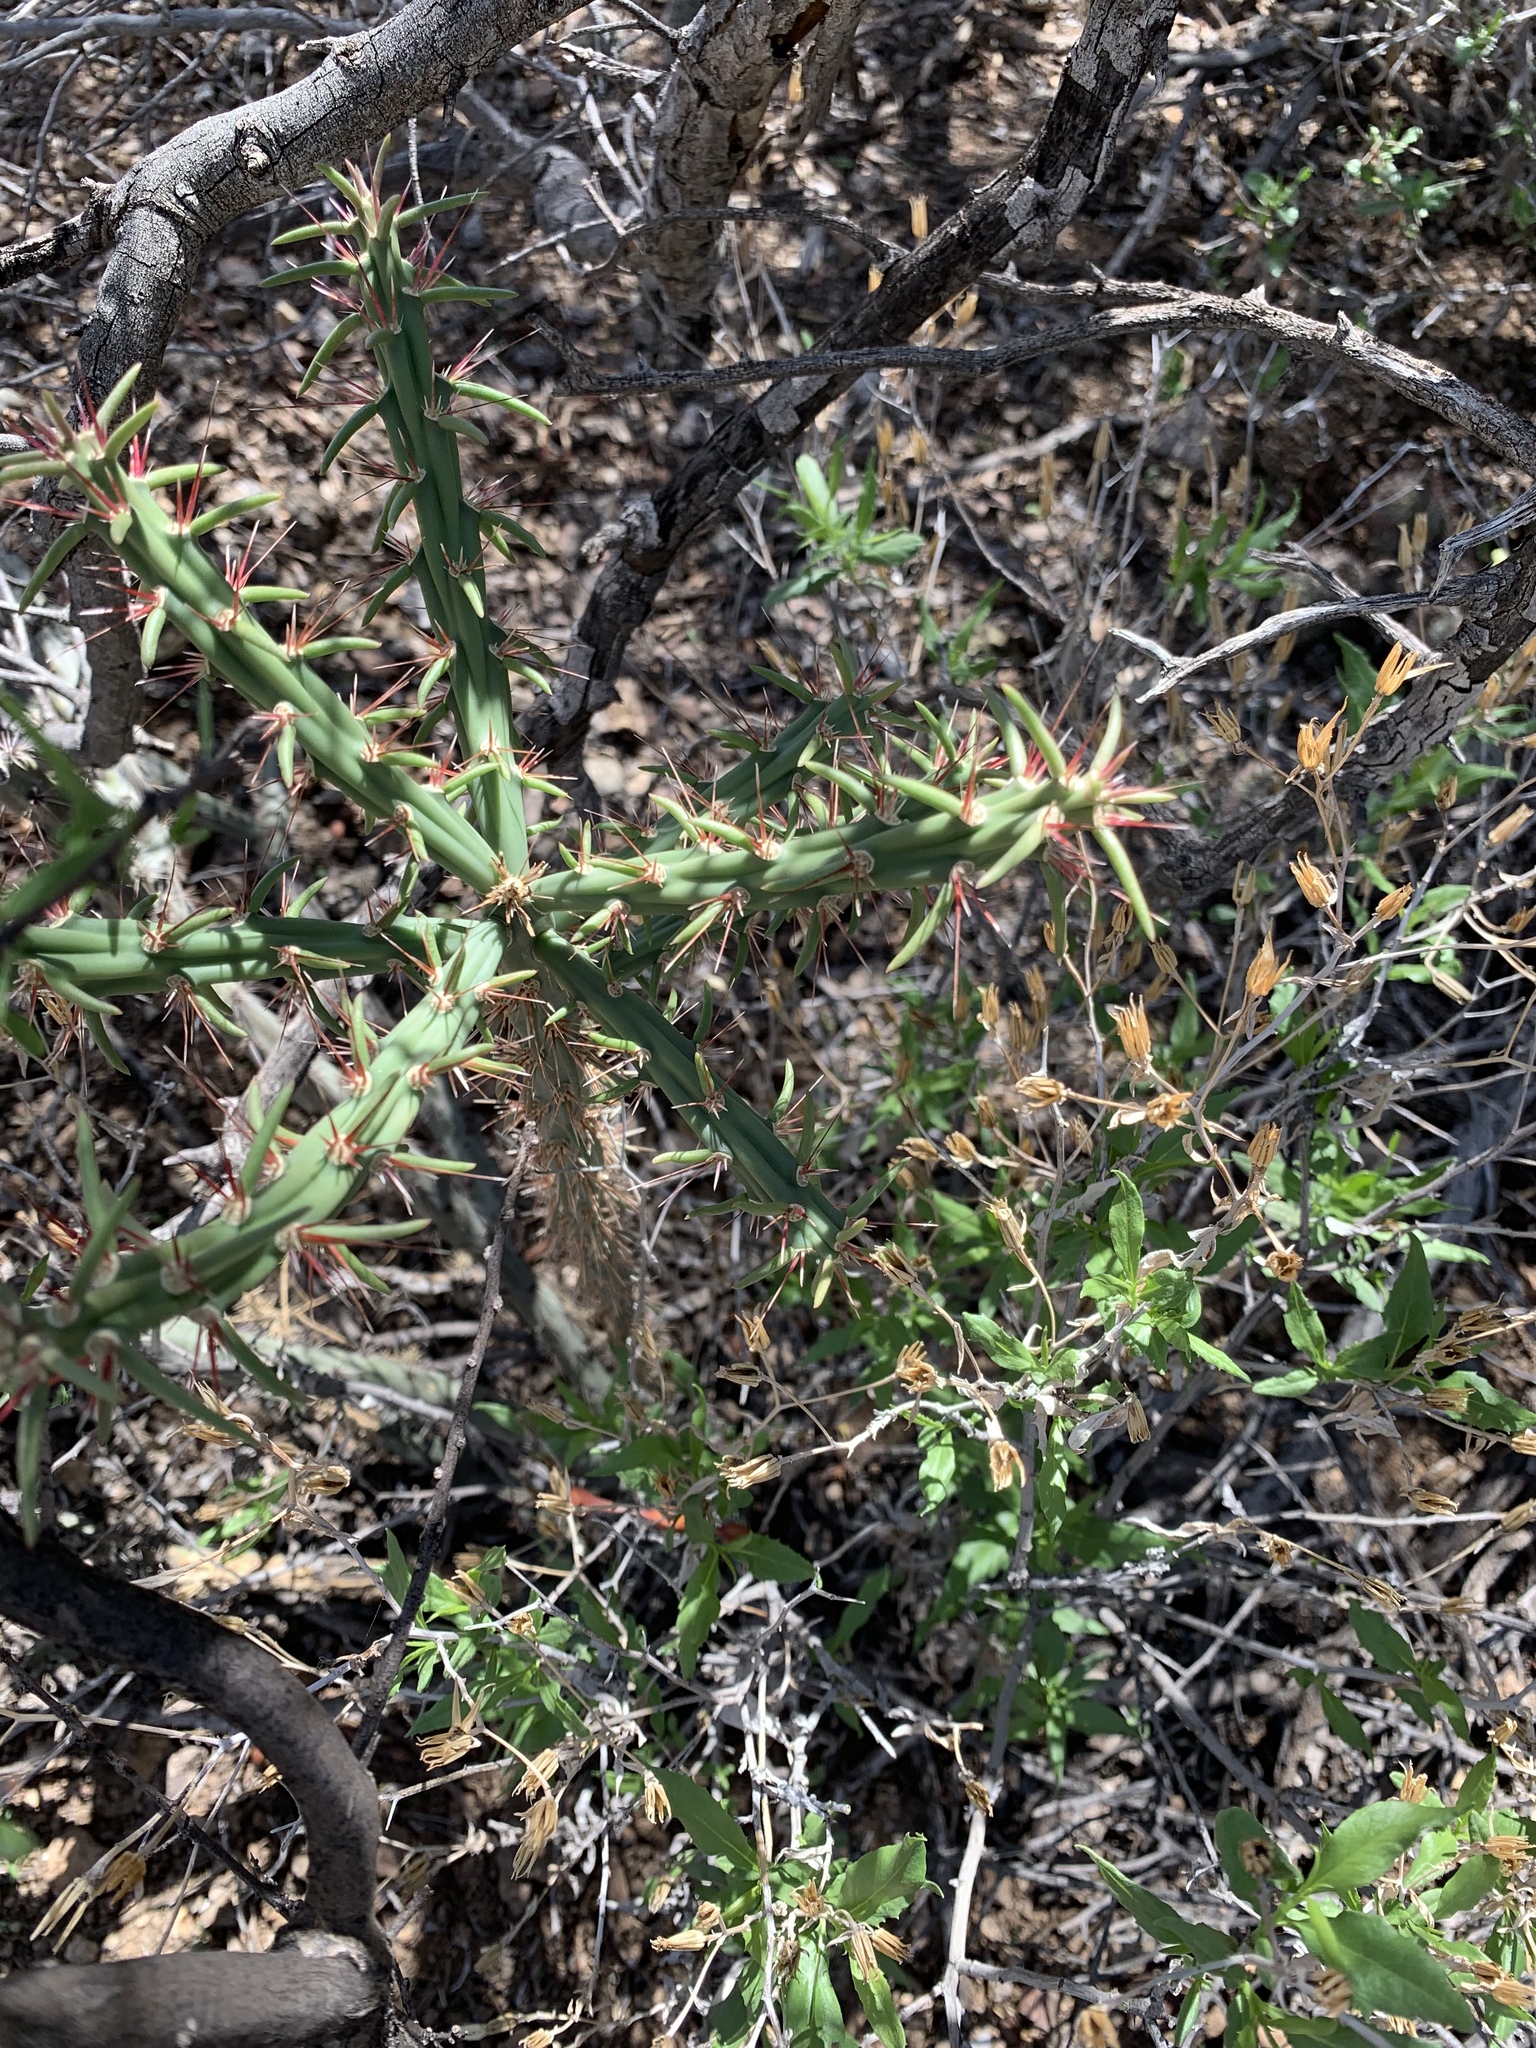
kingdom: Plantae
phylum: Tracheophyta
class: Magnoliopsida
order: Caryophyllales
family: Cactaceae
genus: Cylindropuntia
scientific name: Cylindropuntia acanthocarpa
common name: Buckhorn cholla
